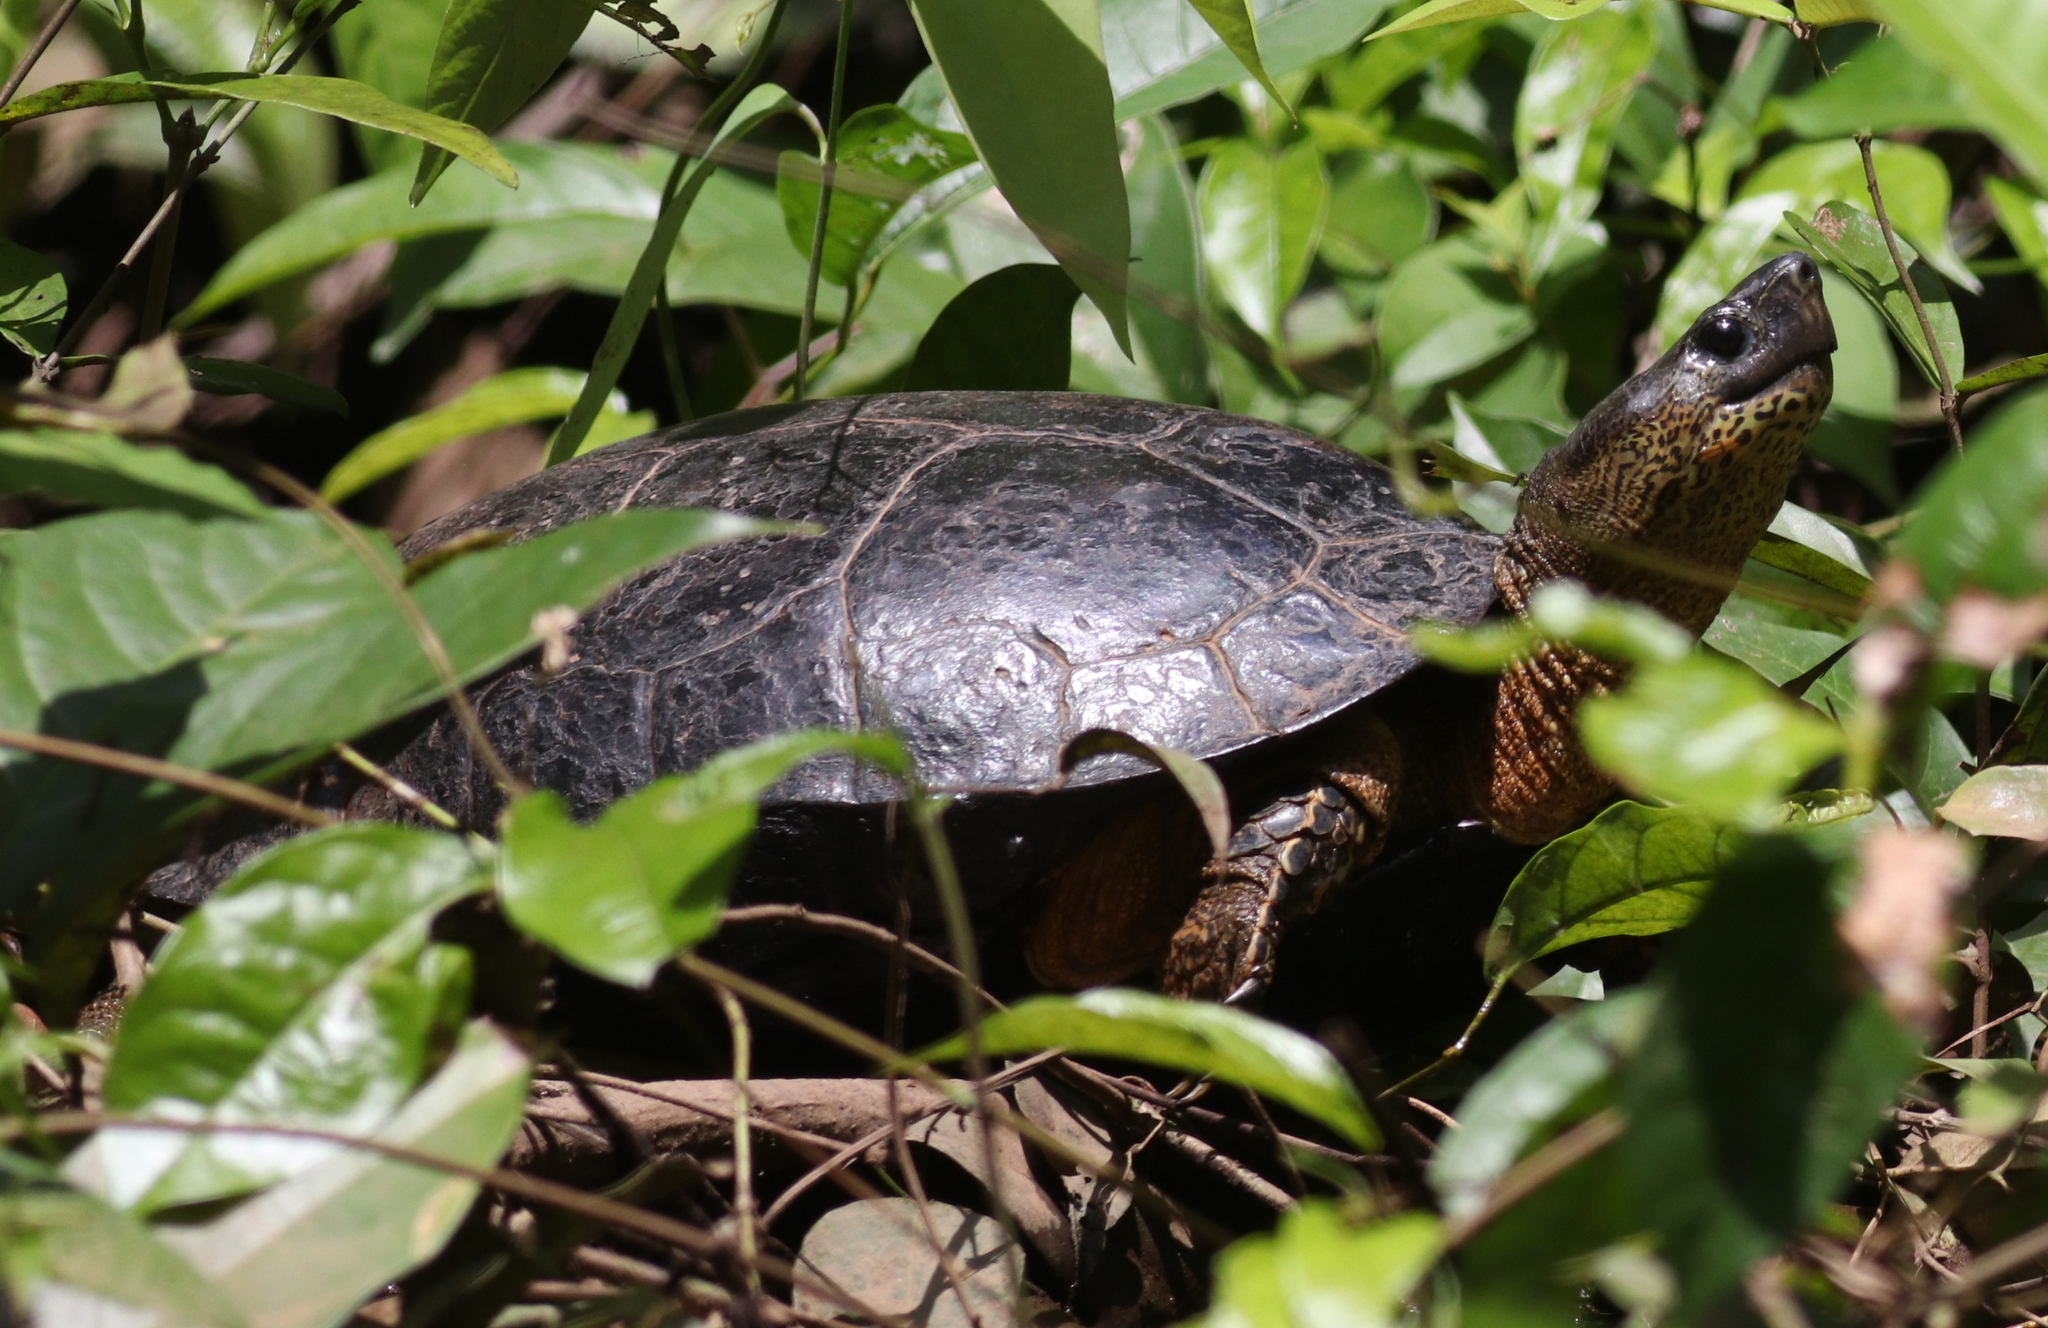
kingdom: Animalia
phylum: Chordata
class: Testudines
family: Geoemydidae
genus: Rhinoclemmys
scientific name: Rhinoclemmys funerea
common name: Black wood turtle
